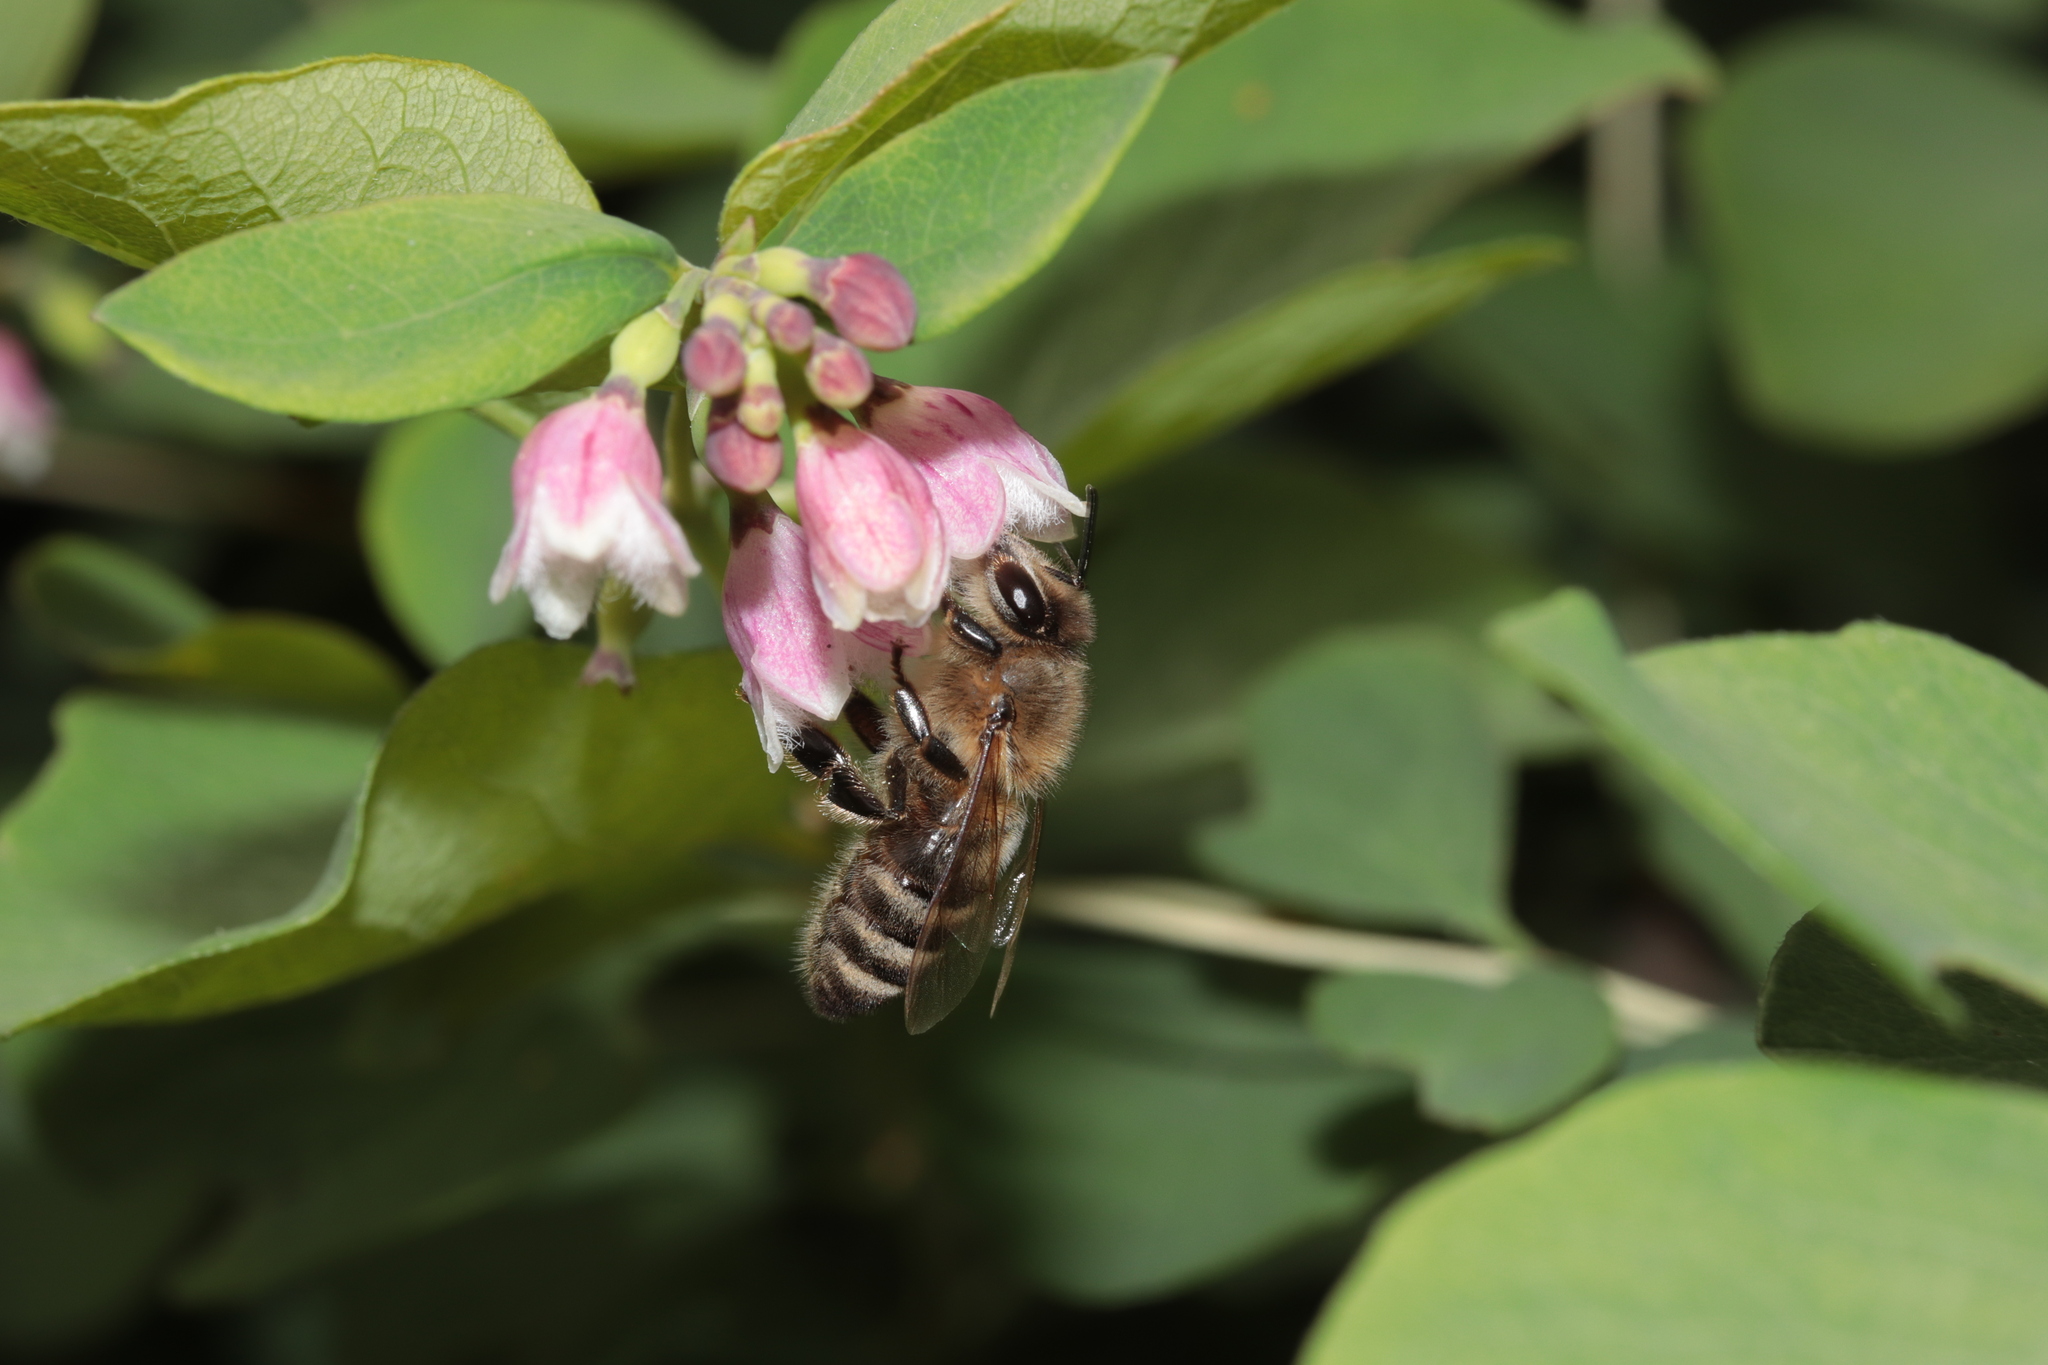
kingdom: Animalia
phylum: Arthropoda
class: Insecta
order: Hymenoptera
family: Apidae
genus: Apis
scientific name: Apis mellifera
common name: Honey bee
